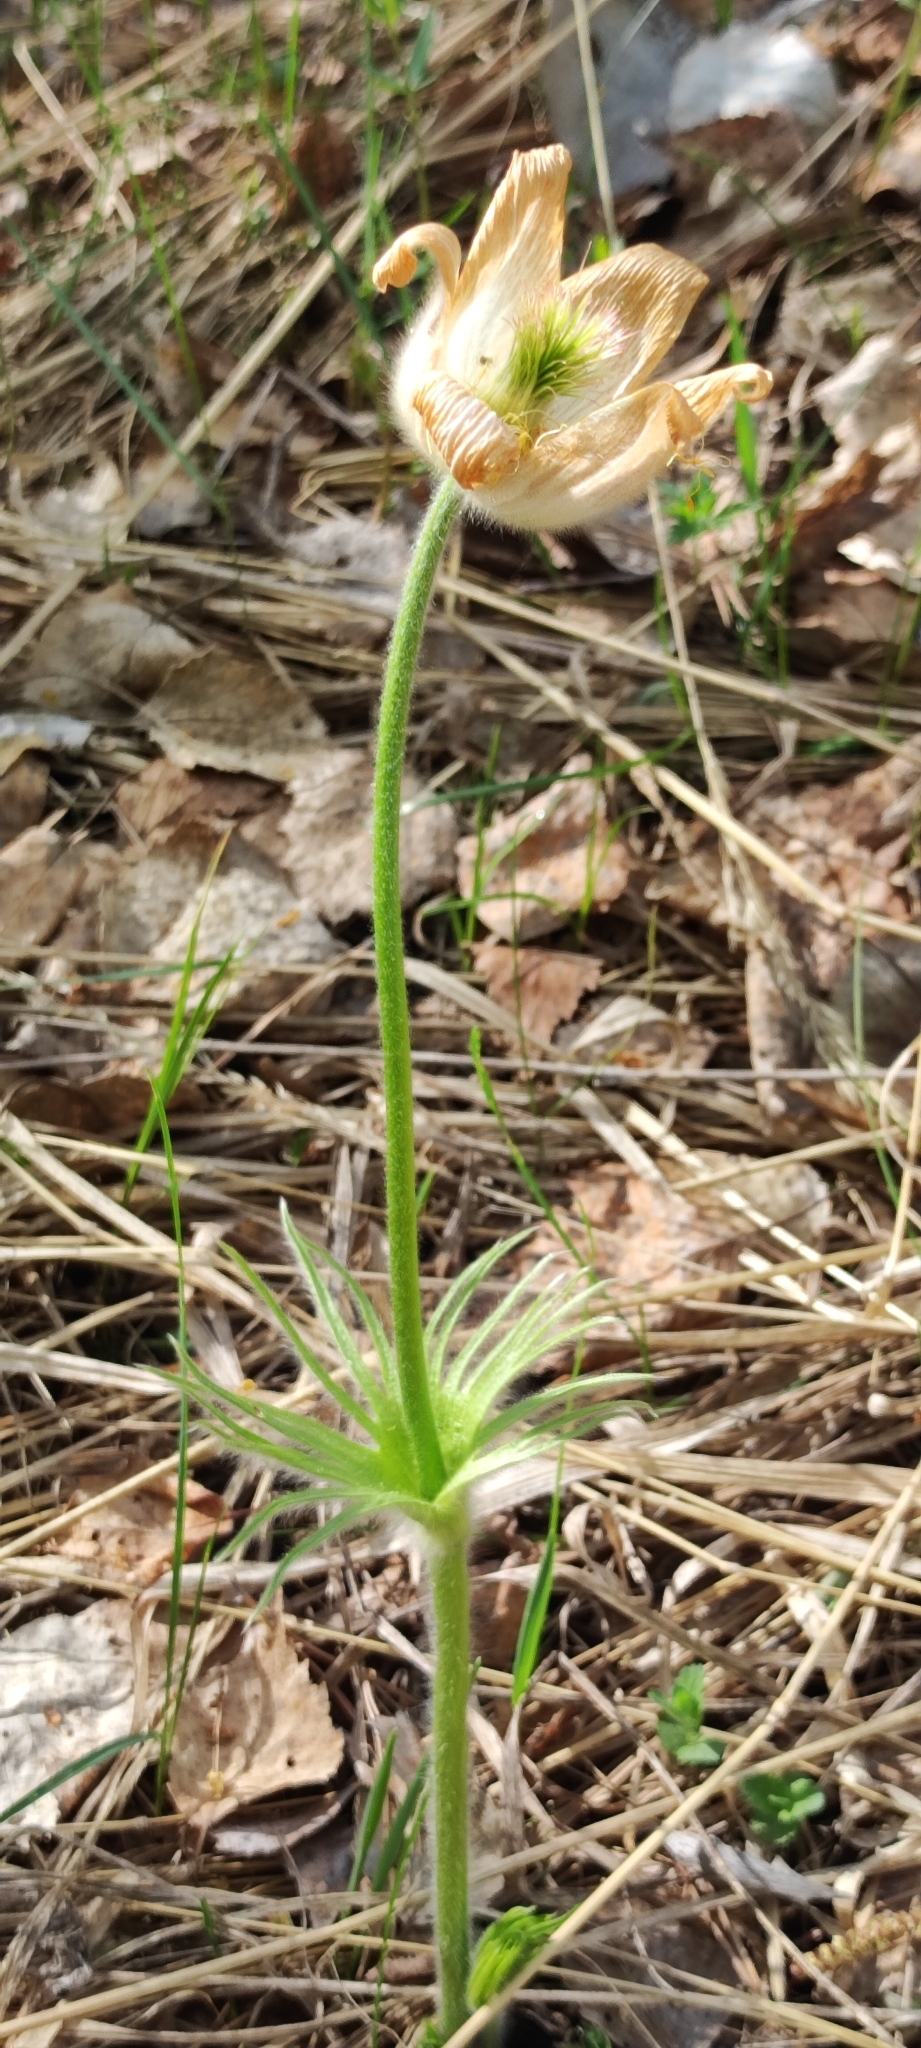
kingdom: Plantae
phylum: Tracheophyta
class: Magnoliopsida
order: Ranunculales
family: Ranunculaceae
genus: Pulsatilla
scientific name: Pulsatilla patens
